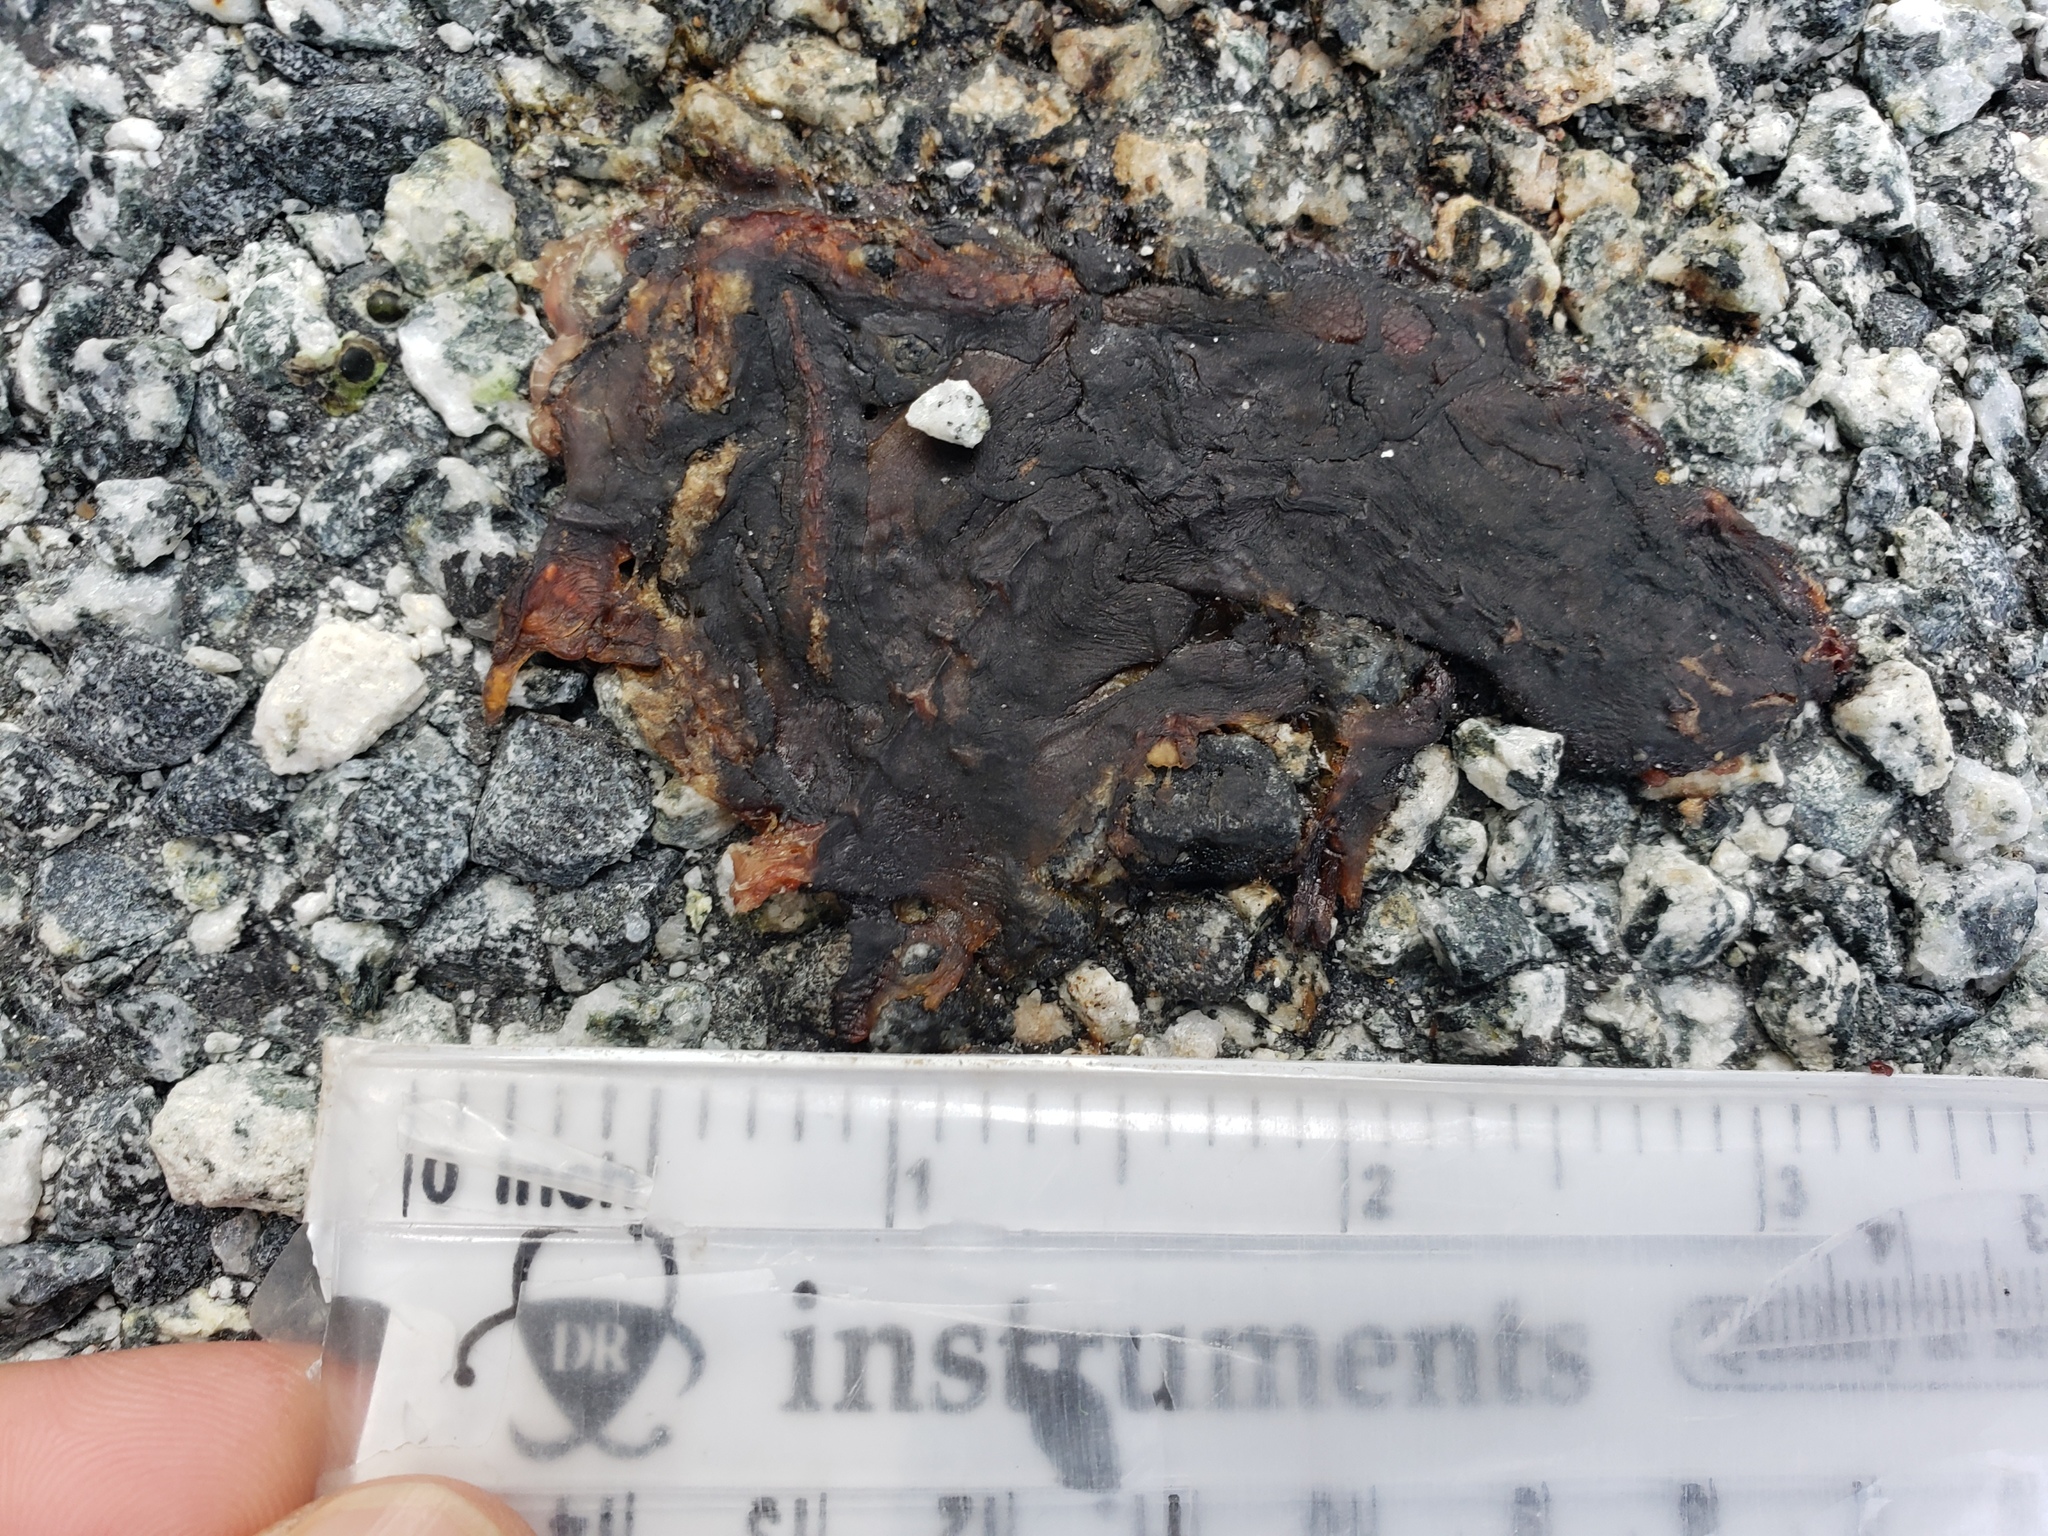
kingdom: Animalia
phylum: Chordata
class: Amphibia
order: Caudata
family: Salamandridae
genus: Taricha
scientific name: Taricha
